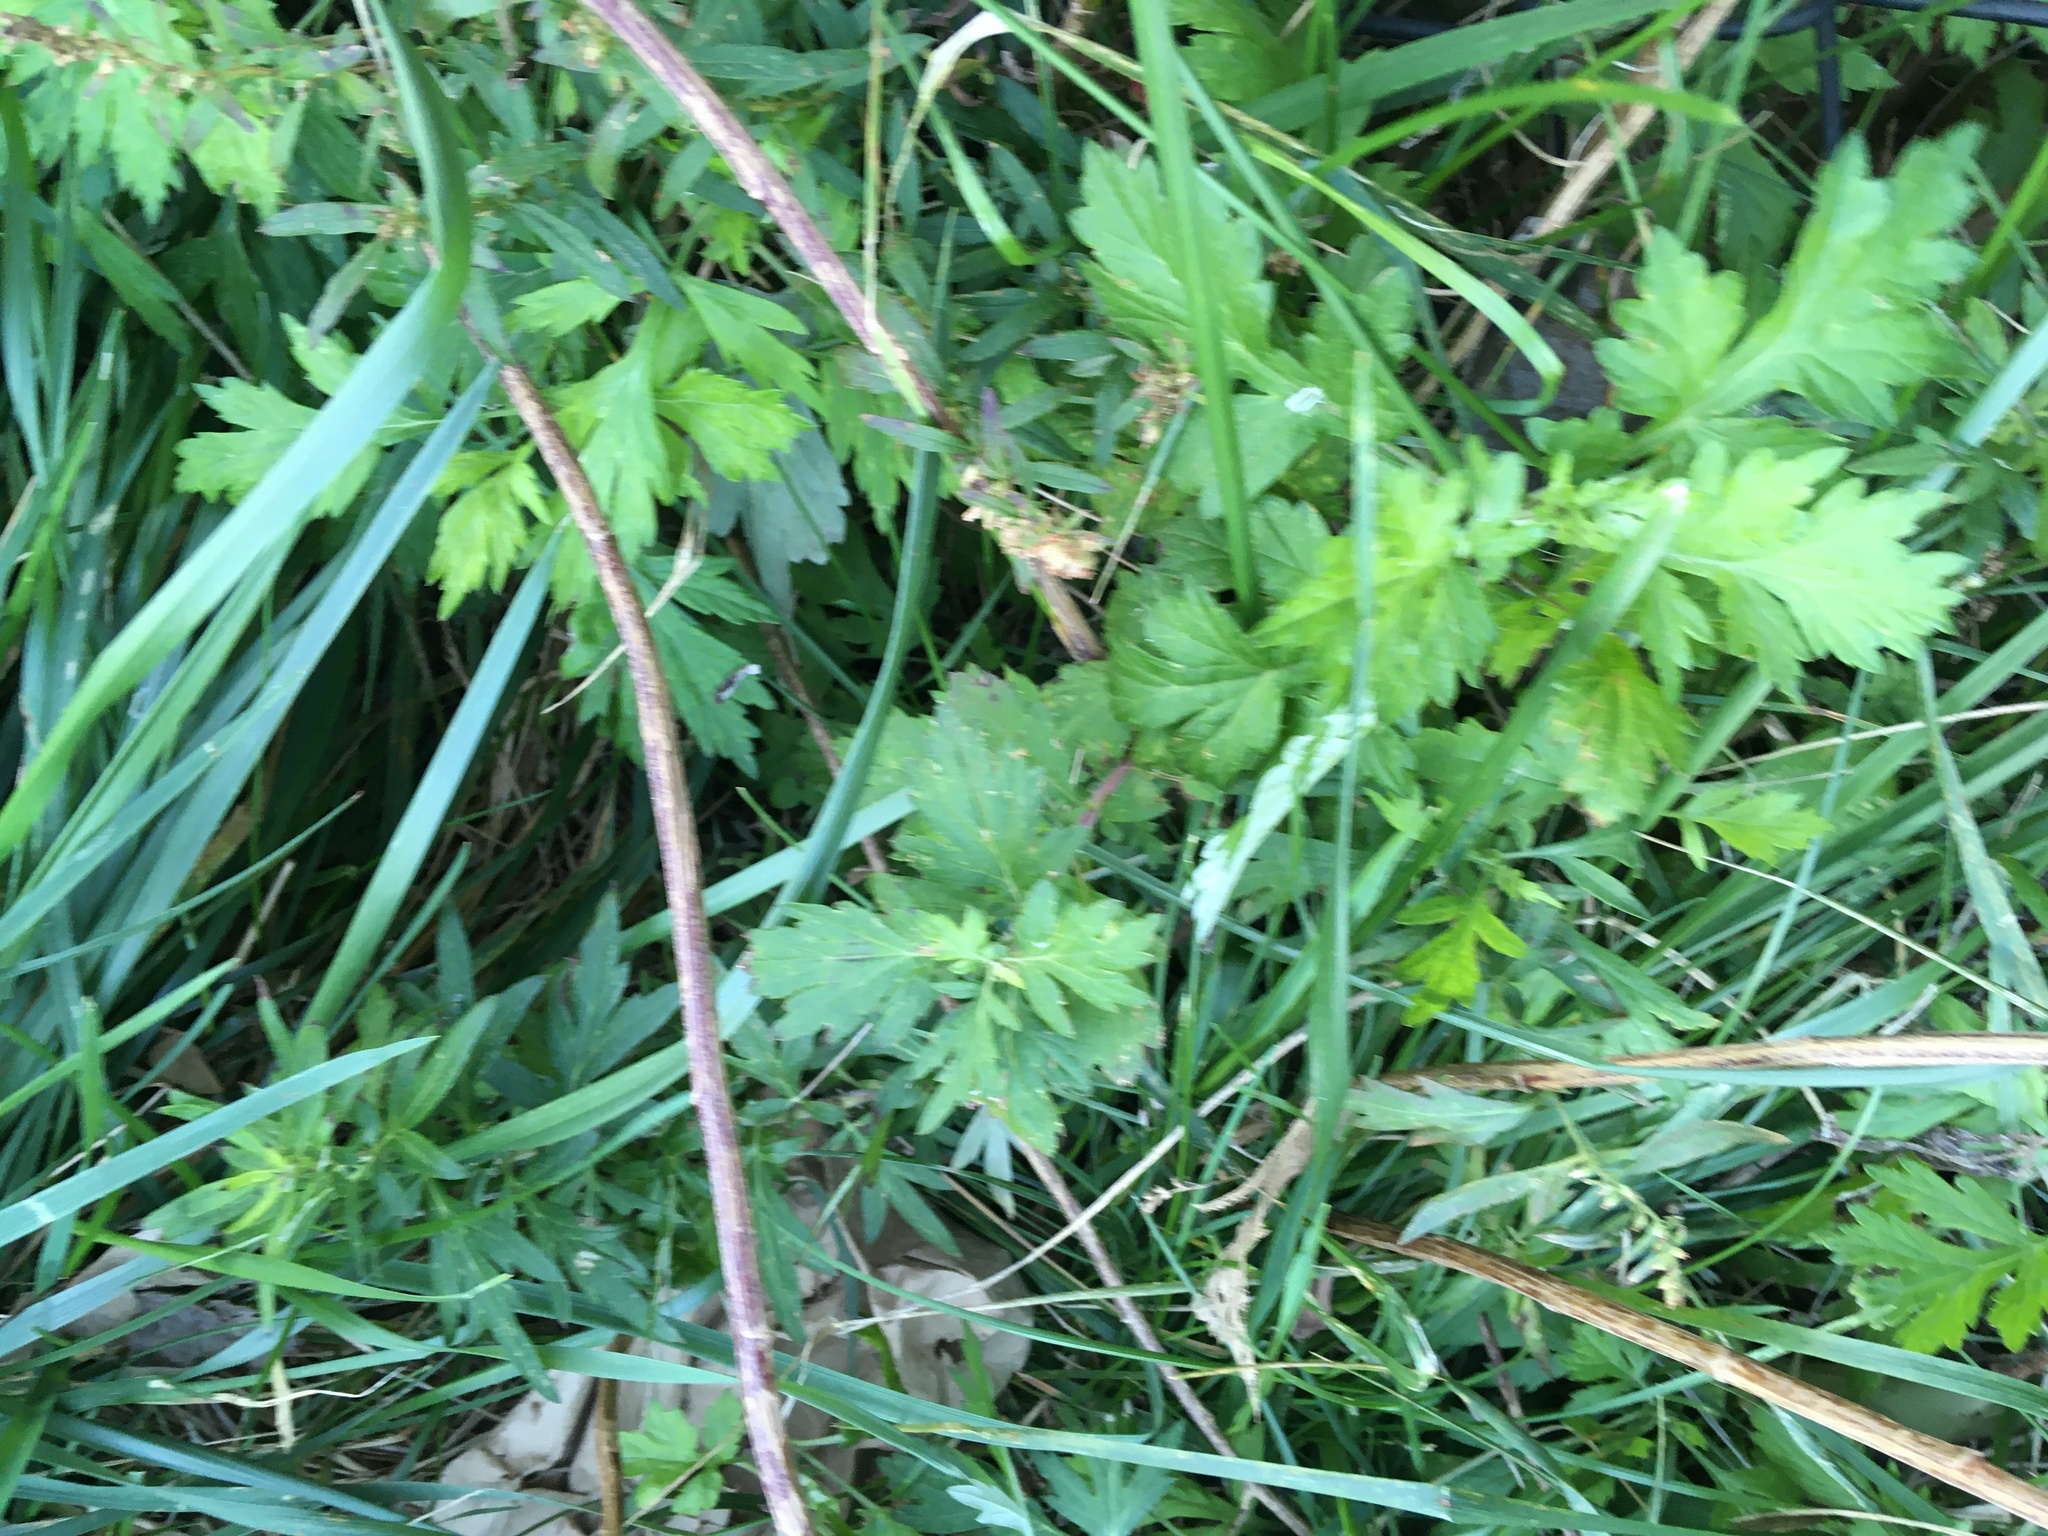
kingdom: Plantae
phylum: Tracheophyta
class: Magnoliopsida
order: Asterales
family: Asteraceae
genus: Artemisia
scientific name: Artemisia vulgaris
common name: Mugwort
